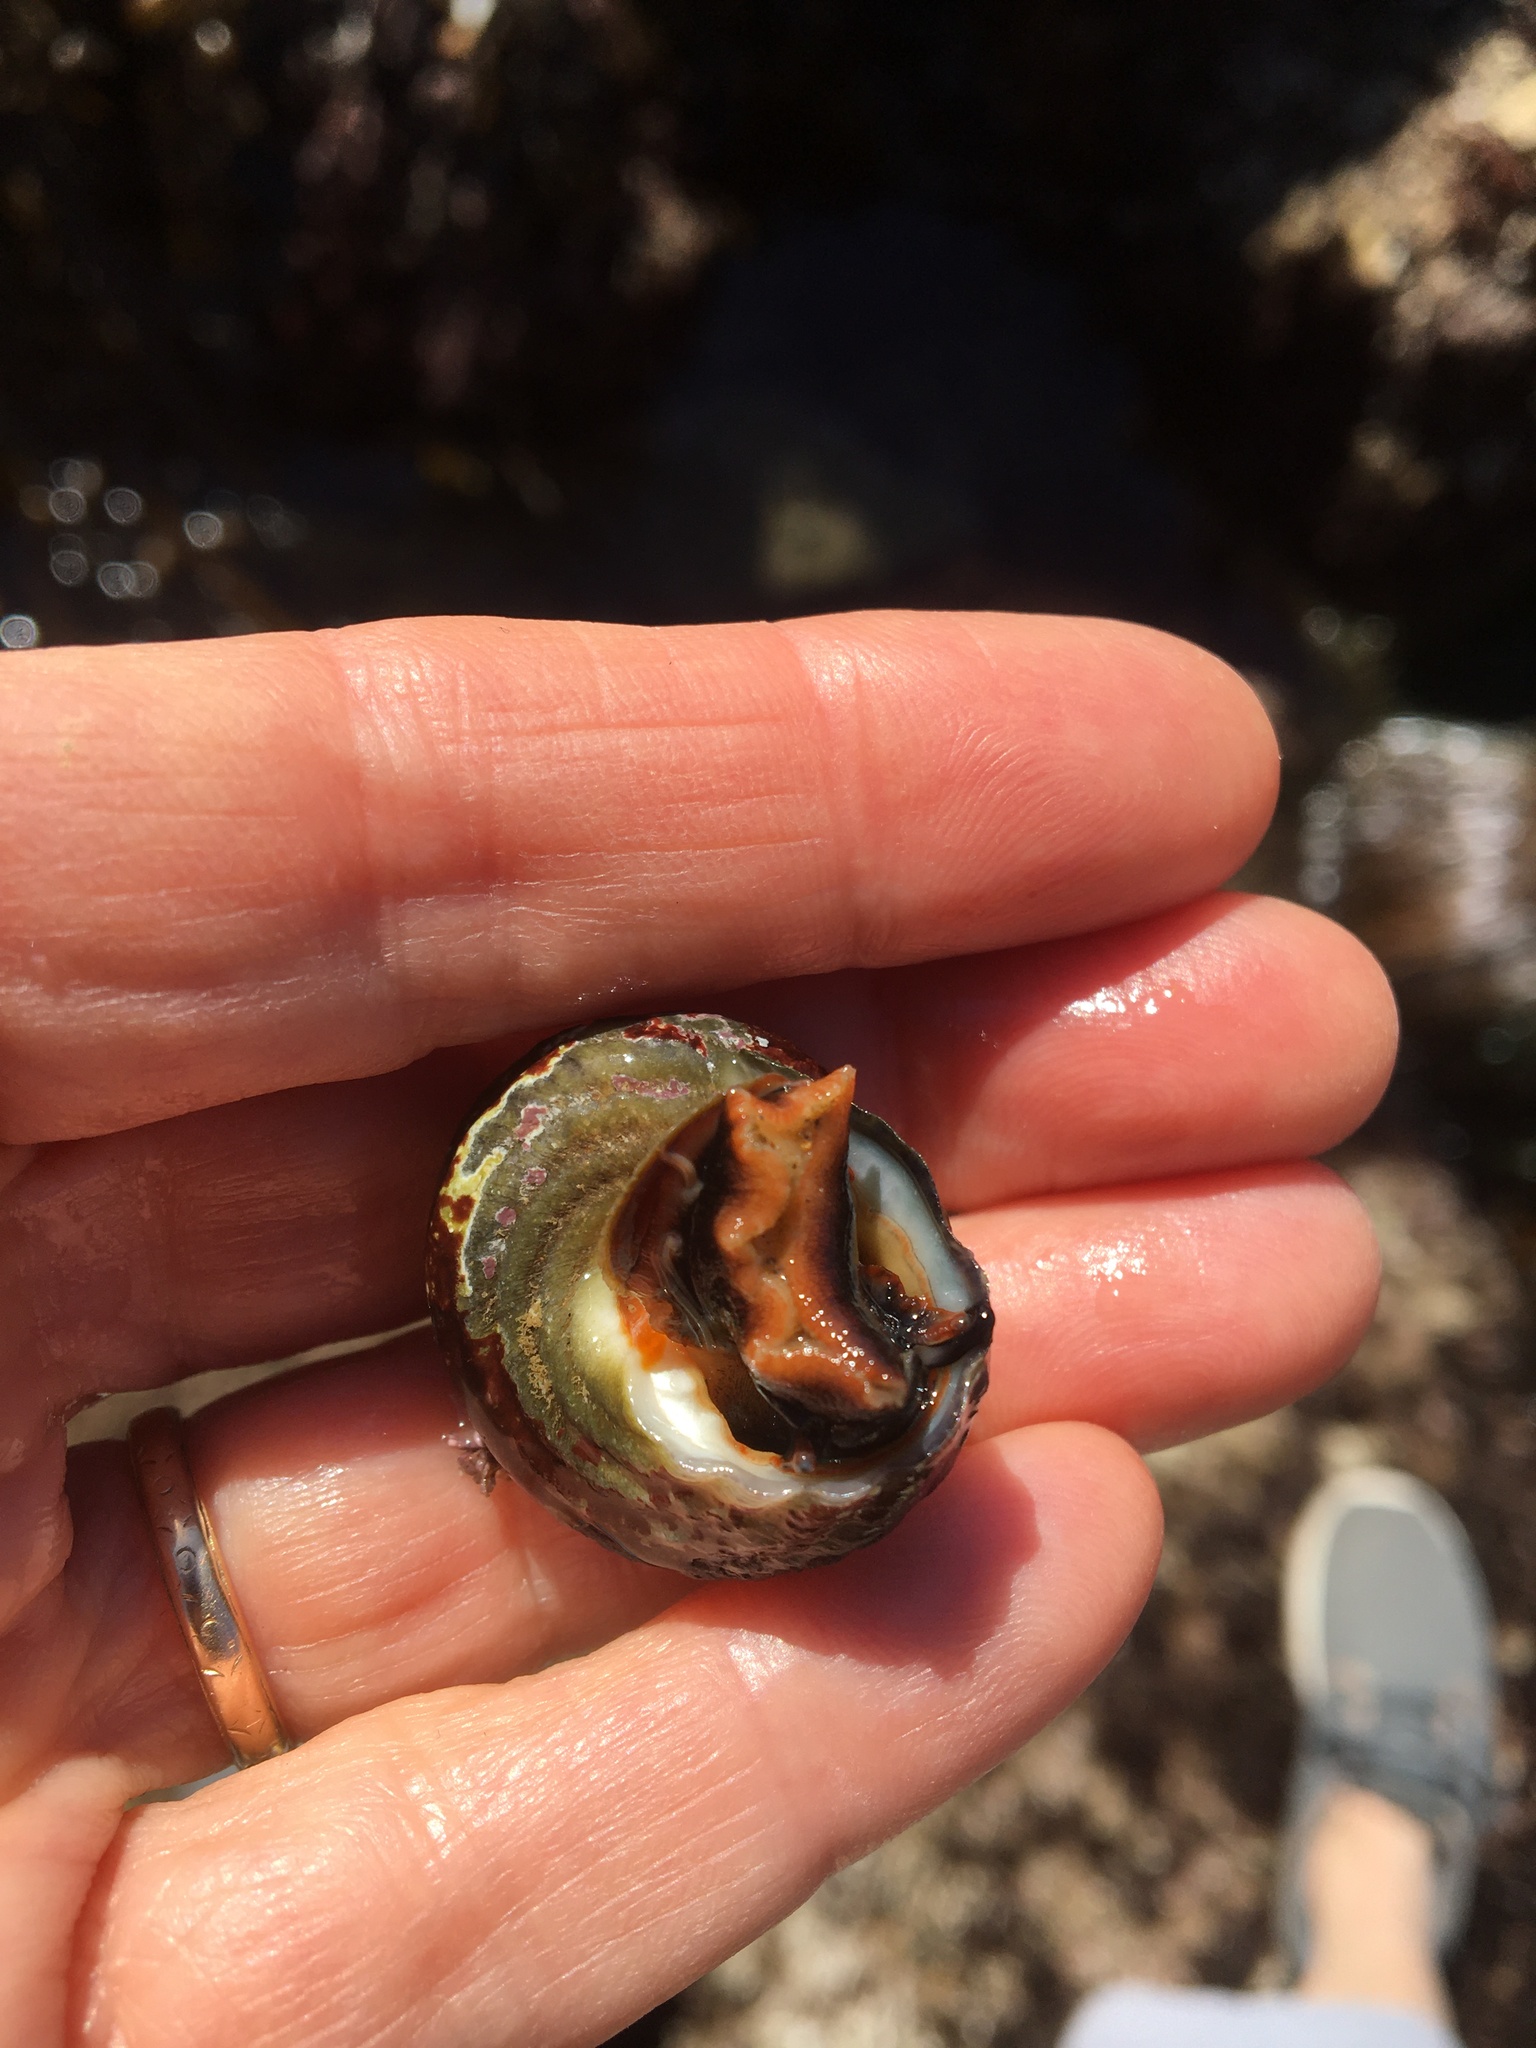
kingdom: Animalia
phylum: Mollusca
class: Gastropoda
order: Trochida
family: Tegulidae
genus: Tegula
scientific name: Tegula aureotincta
